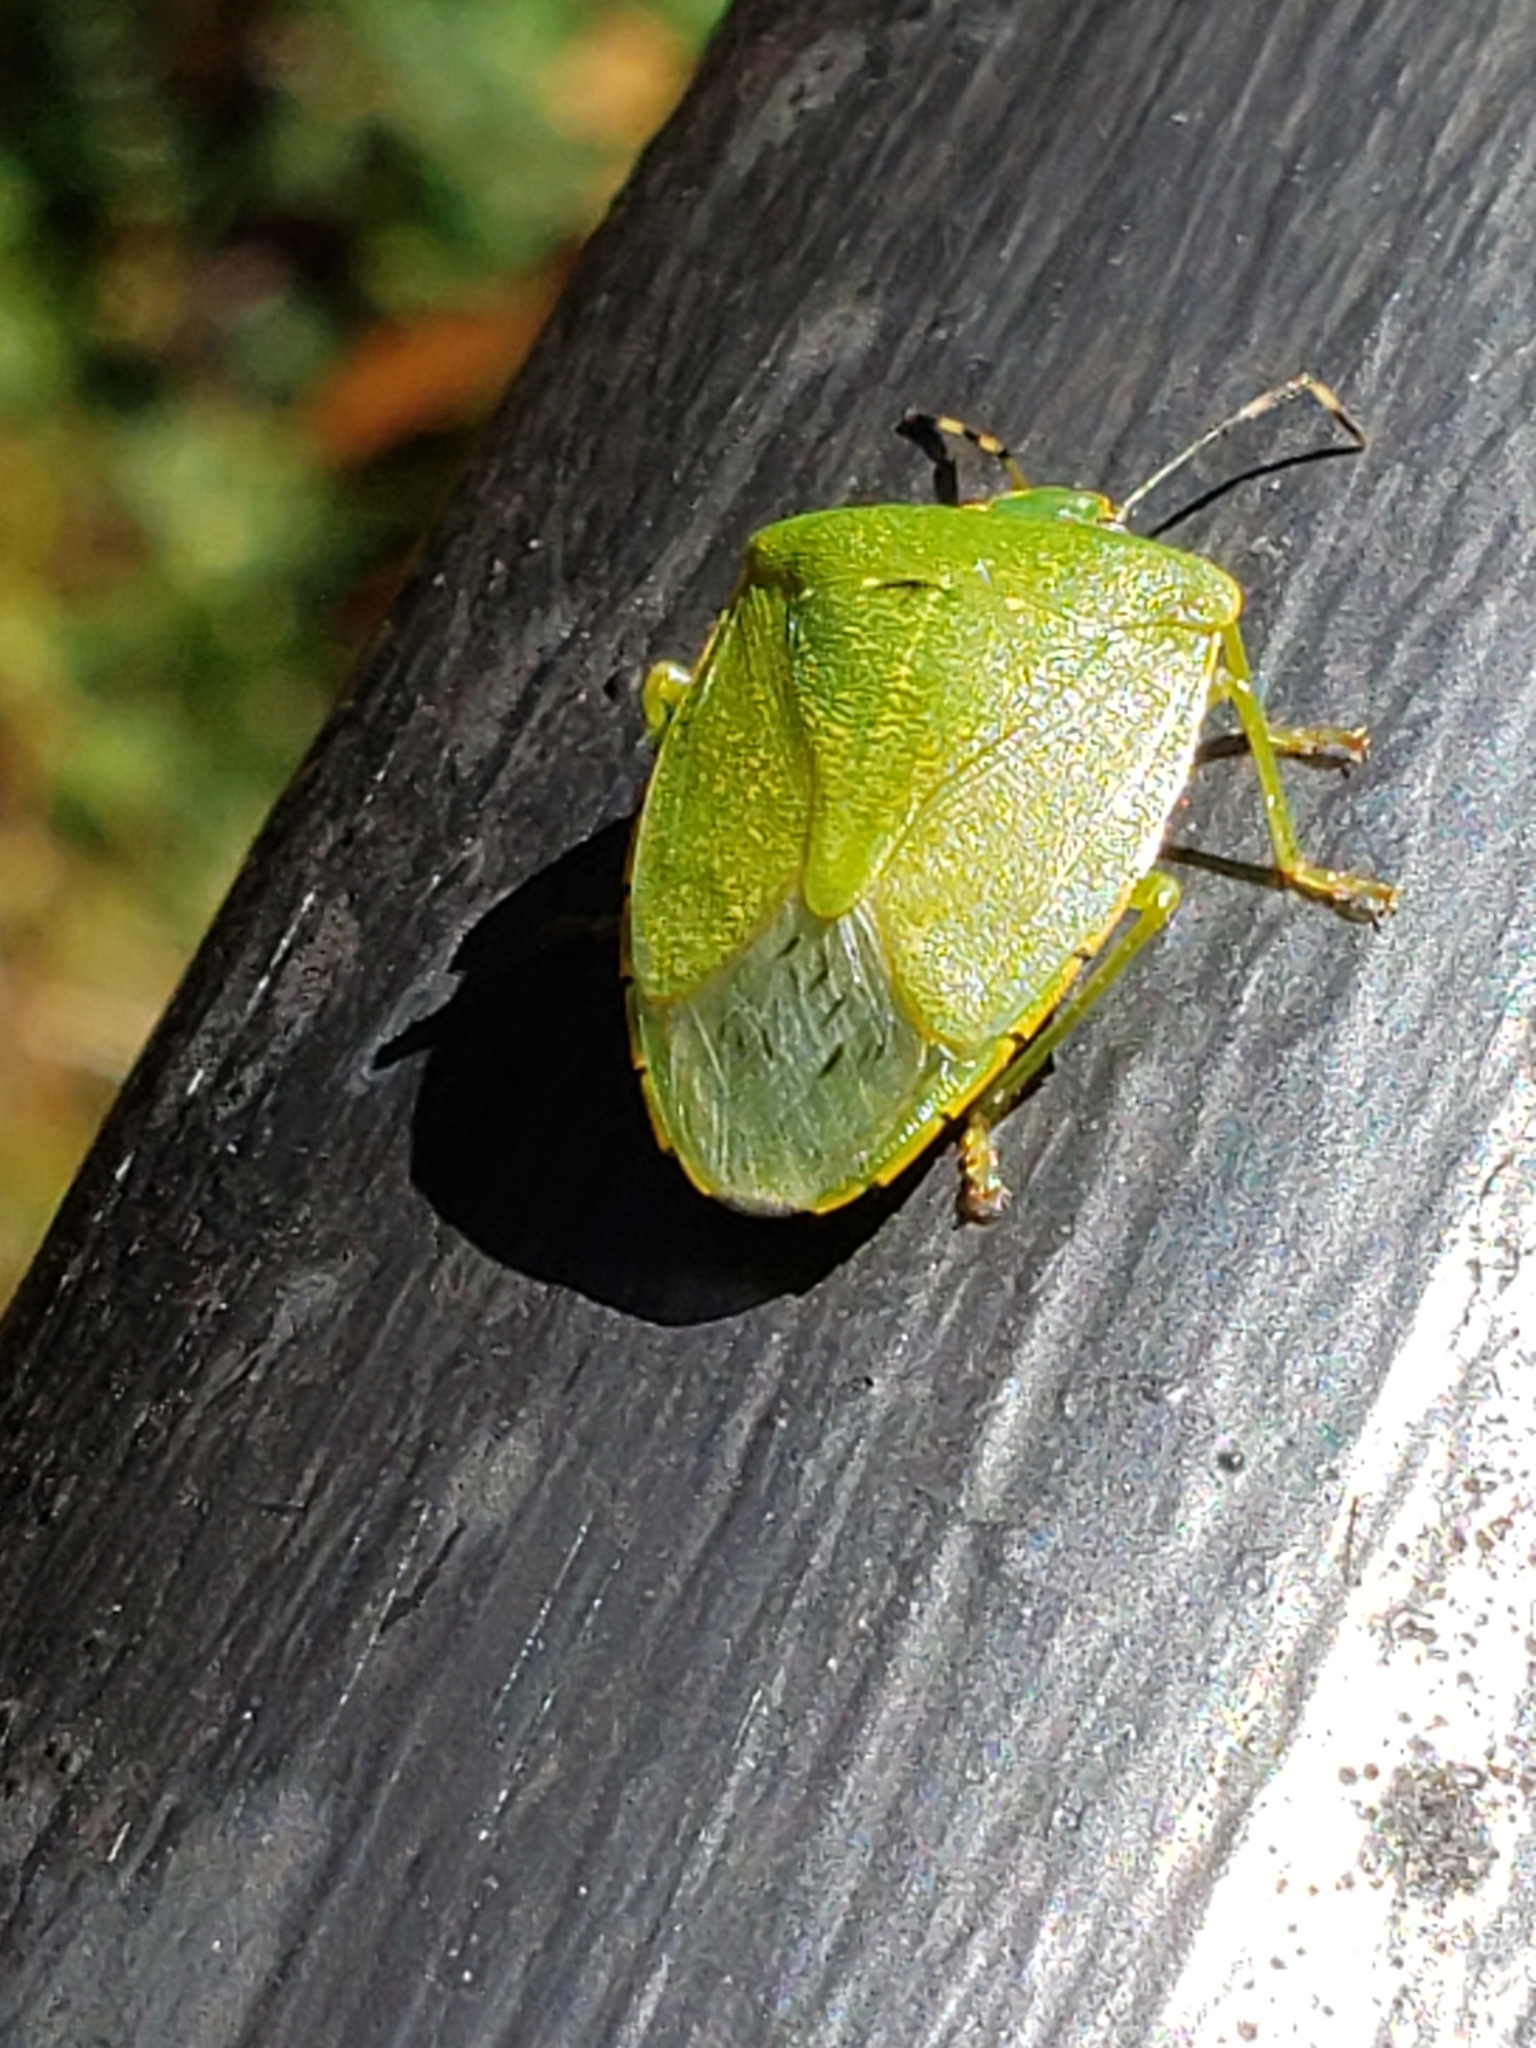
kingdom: Animalia
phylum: Arthropoda
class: Insecta
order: Hemiptera
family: Pentatomidae
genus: Chinavia
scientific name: Chinavia hilaris
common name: Green stink bug
